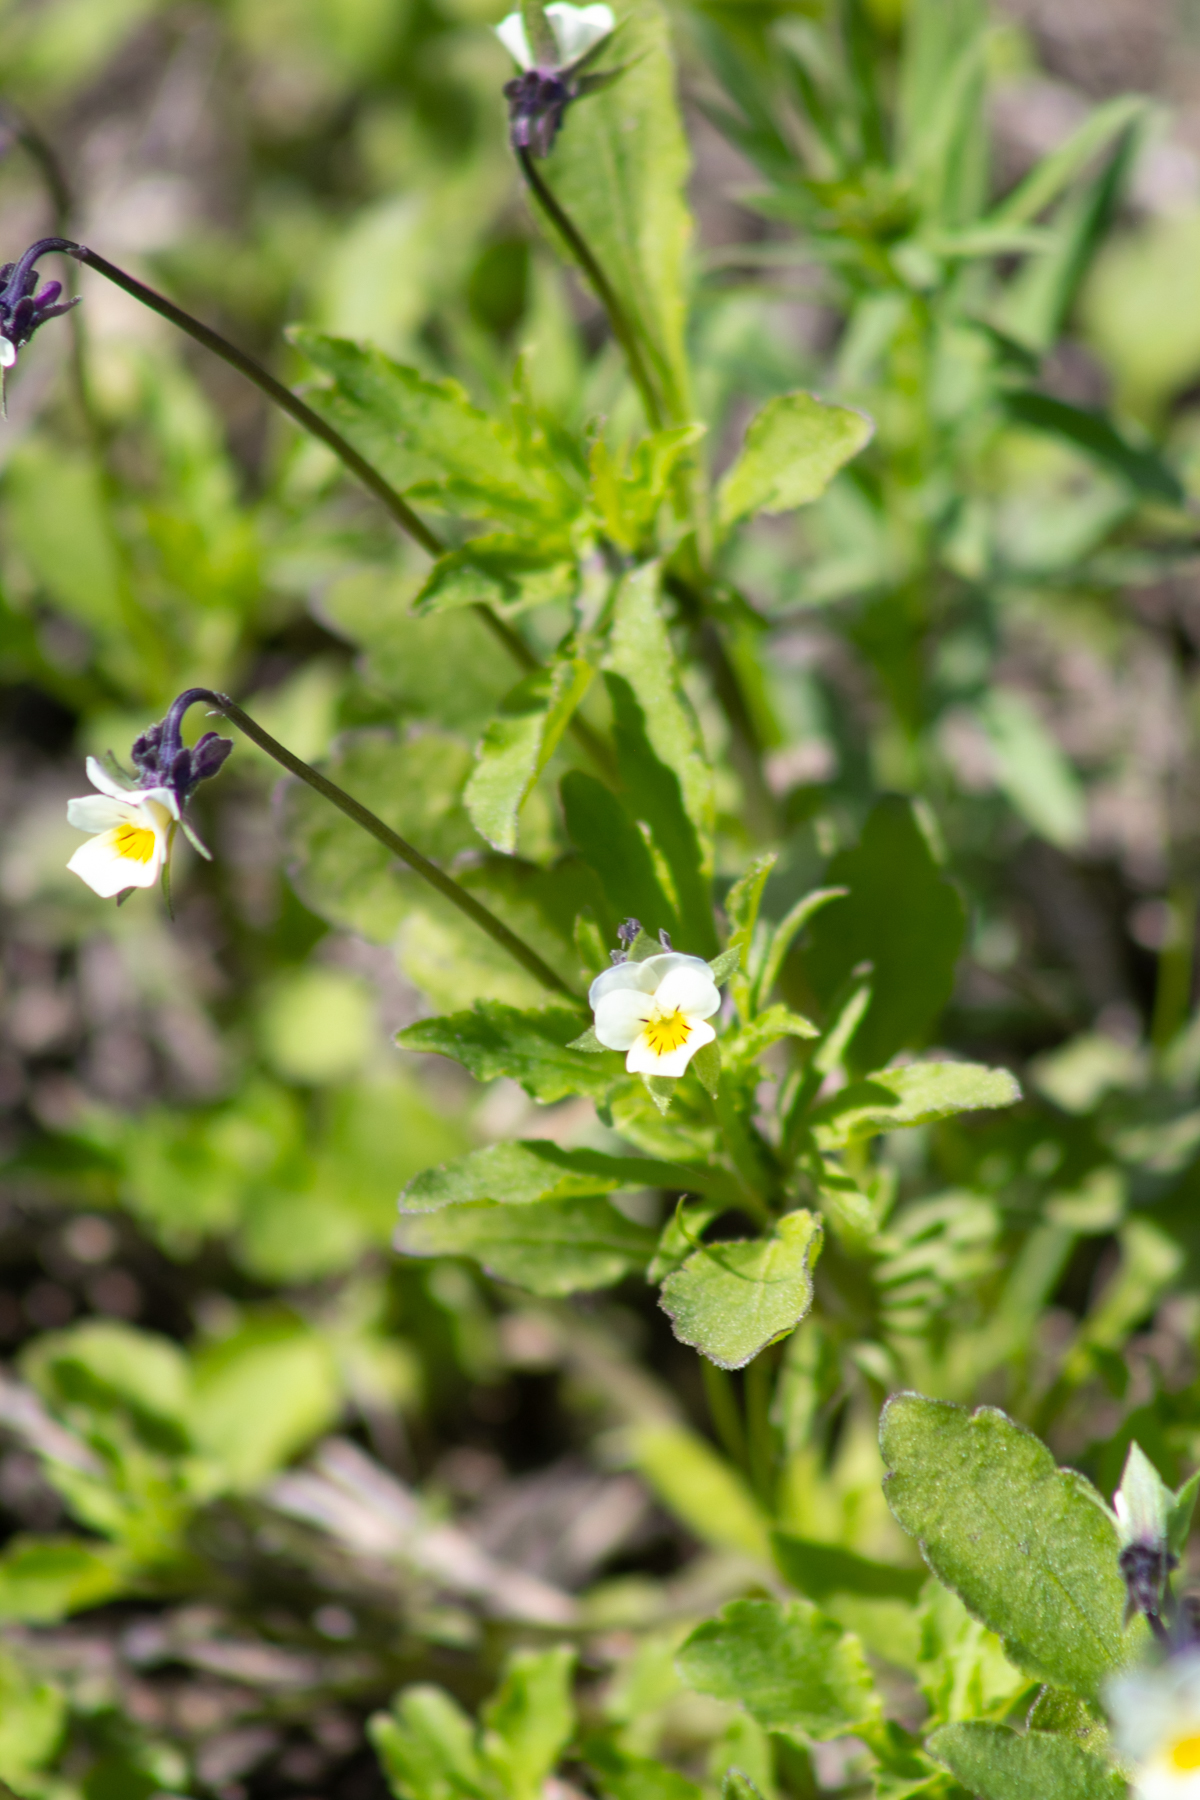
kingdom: Plantae
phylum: Tracheophyta
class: Magnoliopsida
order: Malpighiales
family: Violaceae
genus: Viola
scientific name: Viola arvensis
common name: Field pansy
